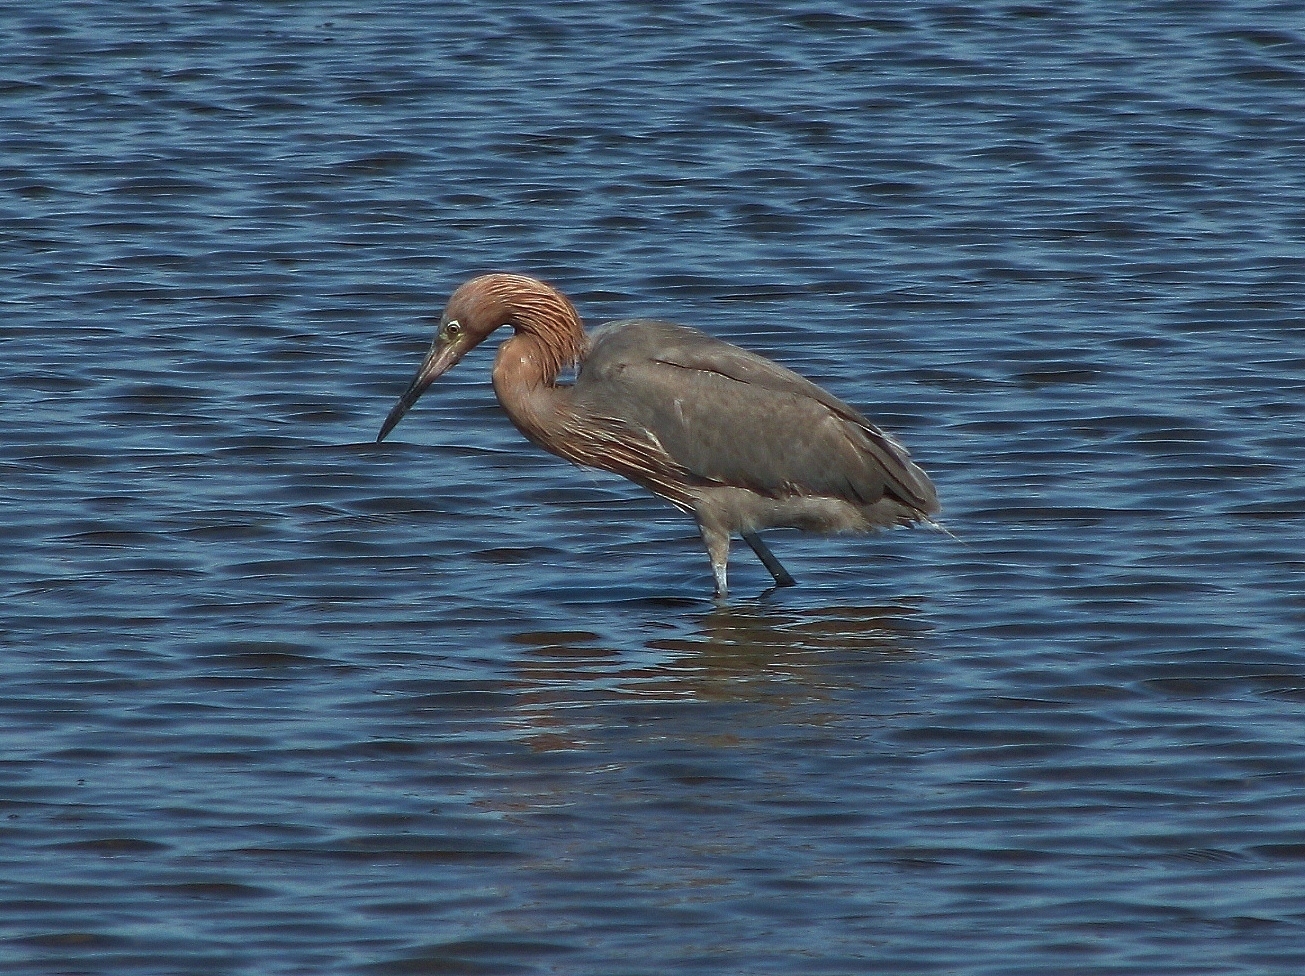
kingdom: Animalia
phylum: Chordata
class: Aves
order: Pelecaniformes
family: Ardeidae
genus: Egretta
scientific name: Egretta rufescens
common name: Reddish egret
